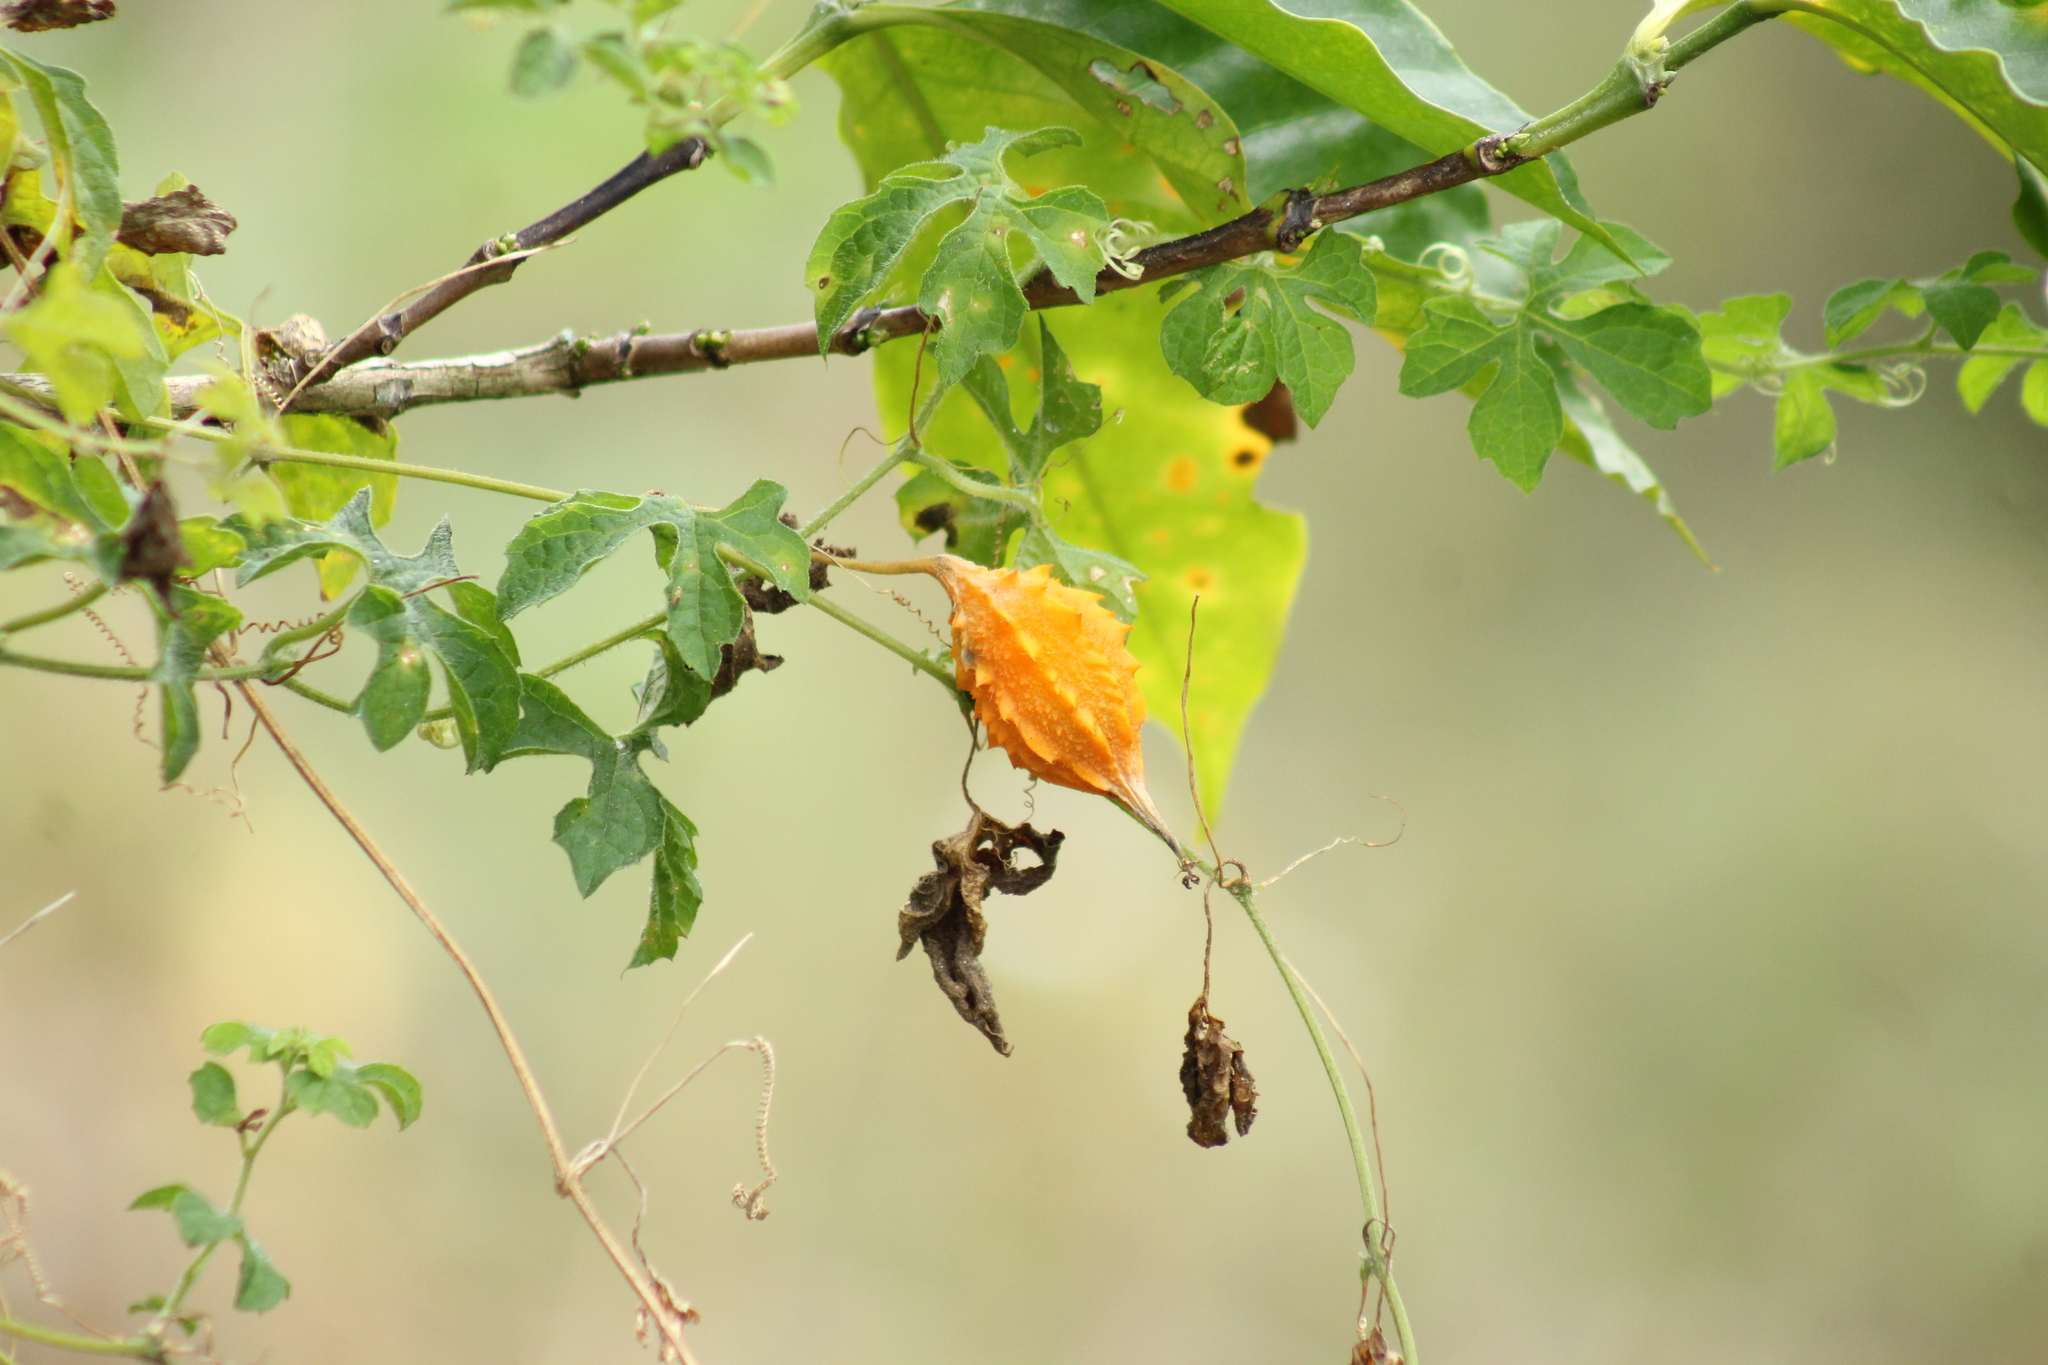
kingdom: Plantae
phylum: Tracheophyta
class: Magnoliopsida
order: Cucurbitales
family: Cucurbitaceae
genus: Momordica
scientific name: Momordica charantia
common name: Balsampear
